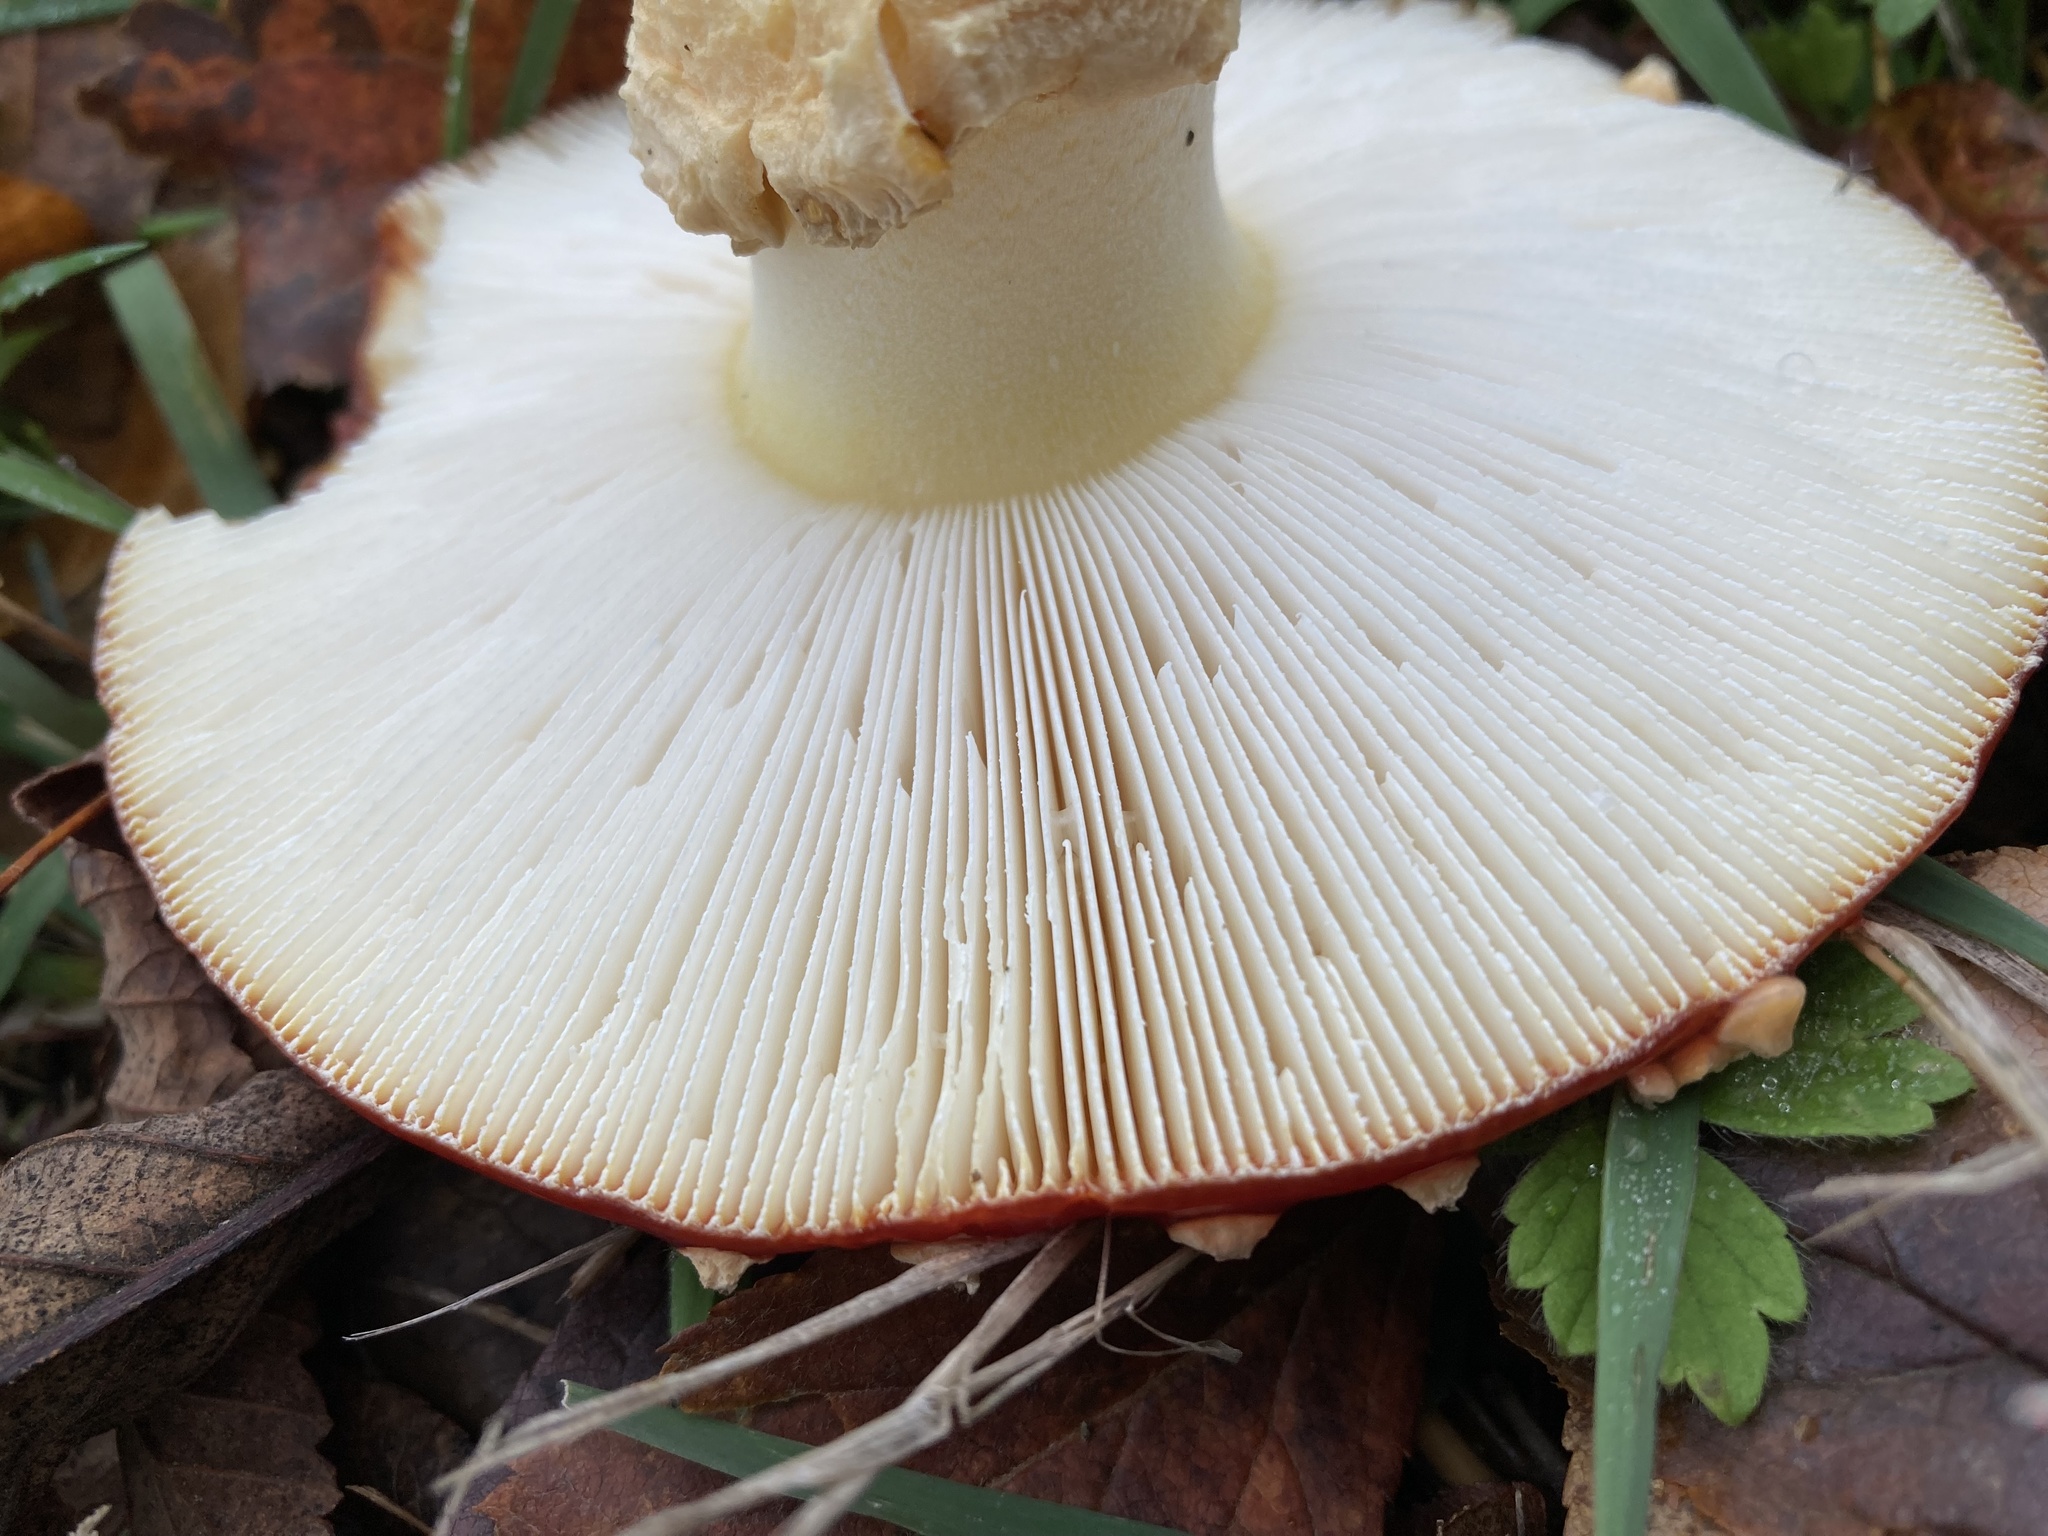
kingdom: Fungi
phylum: Basidiomycota
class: Agaricomycetes
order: Agaricales
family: Amanitaceae
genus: Amanita
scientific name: Amanita muscaria
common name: Fly agaric
